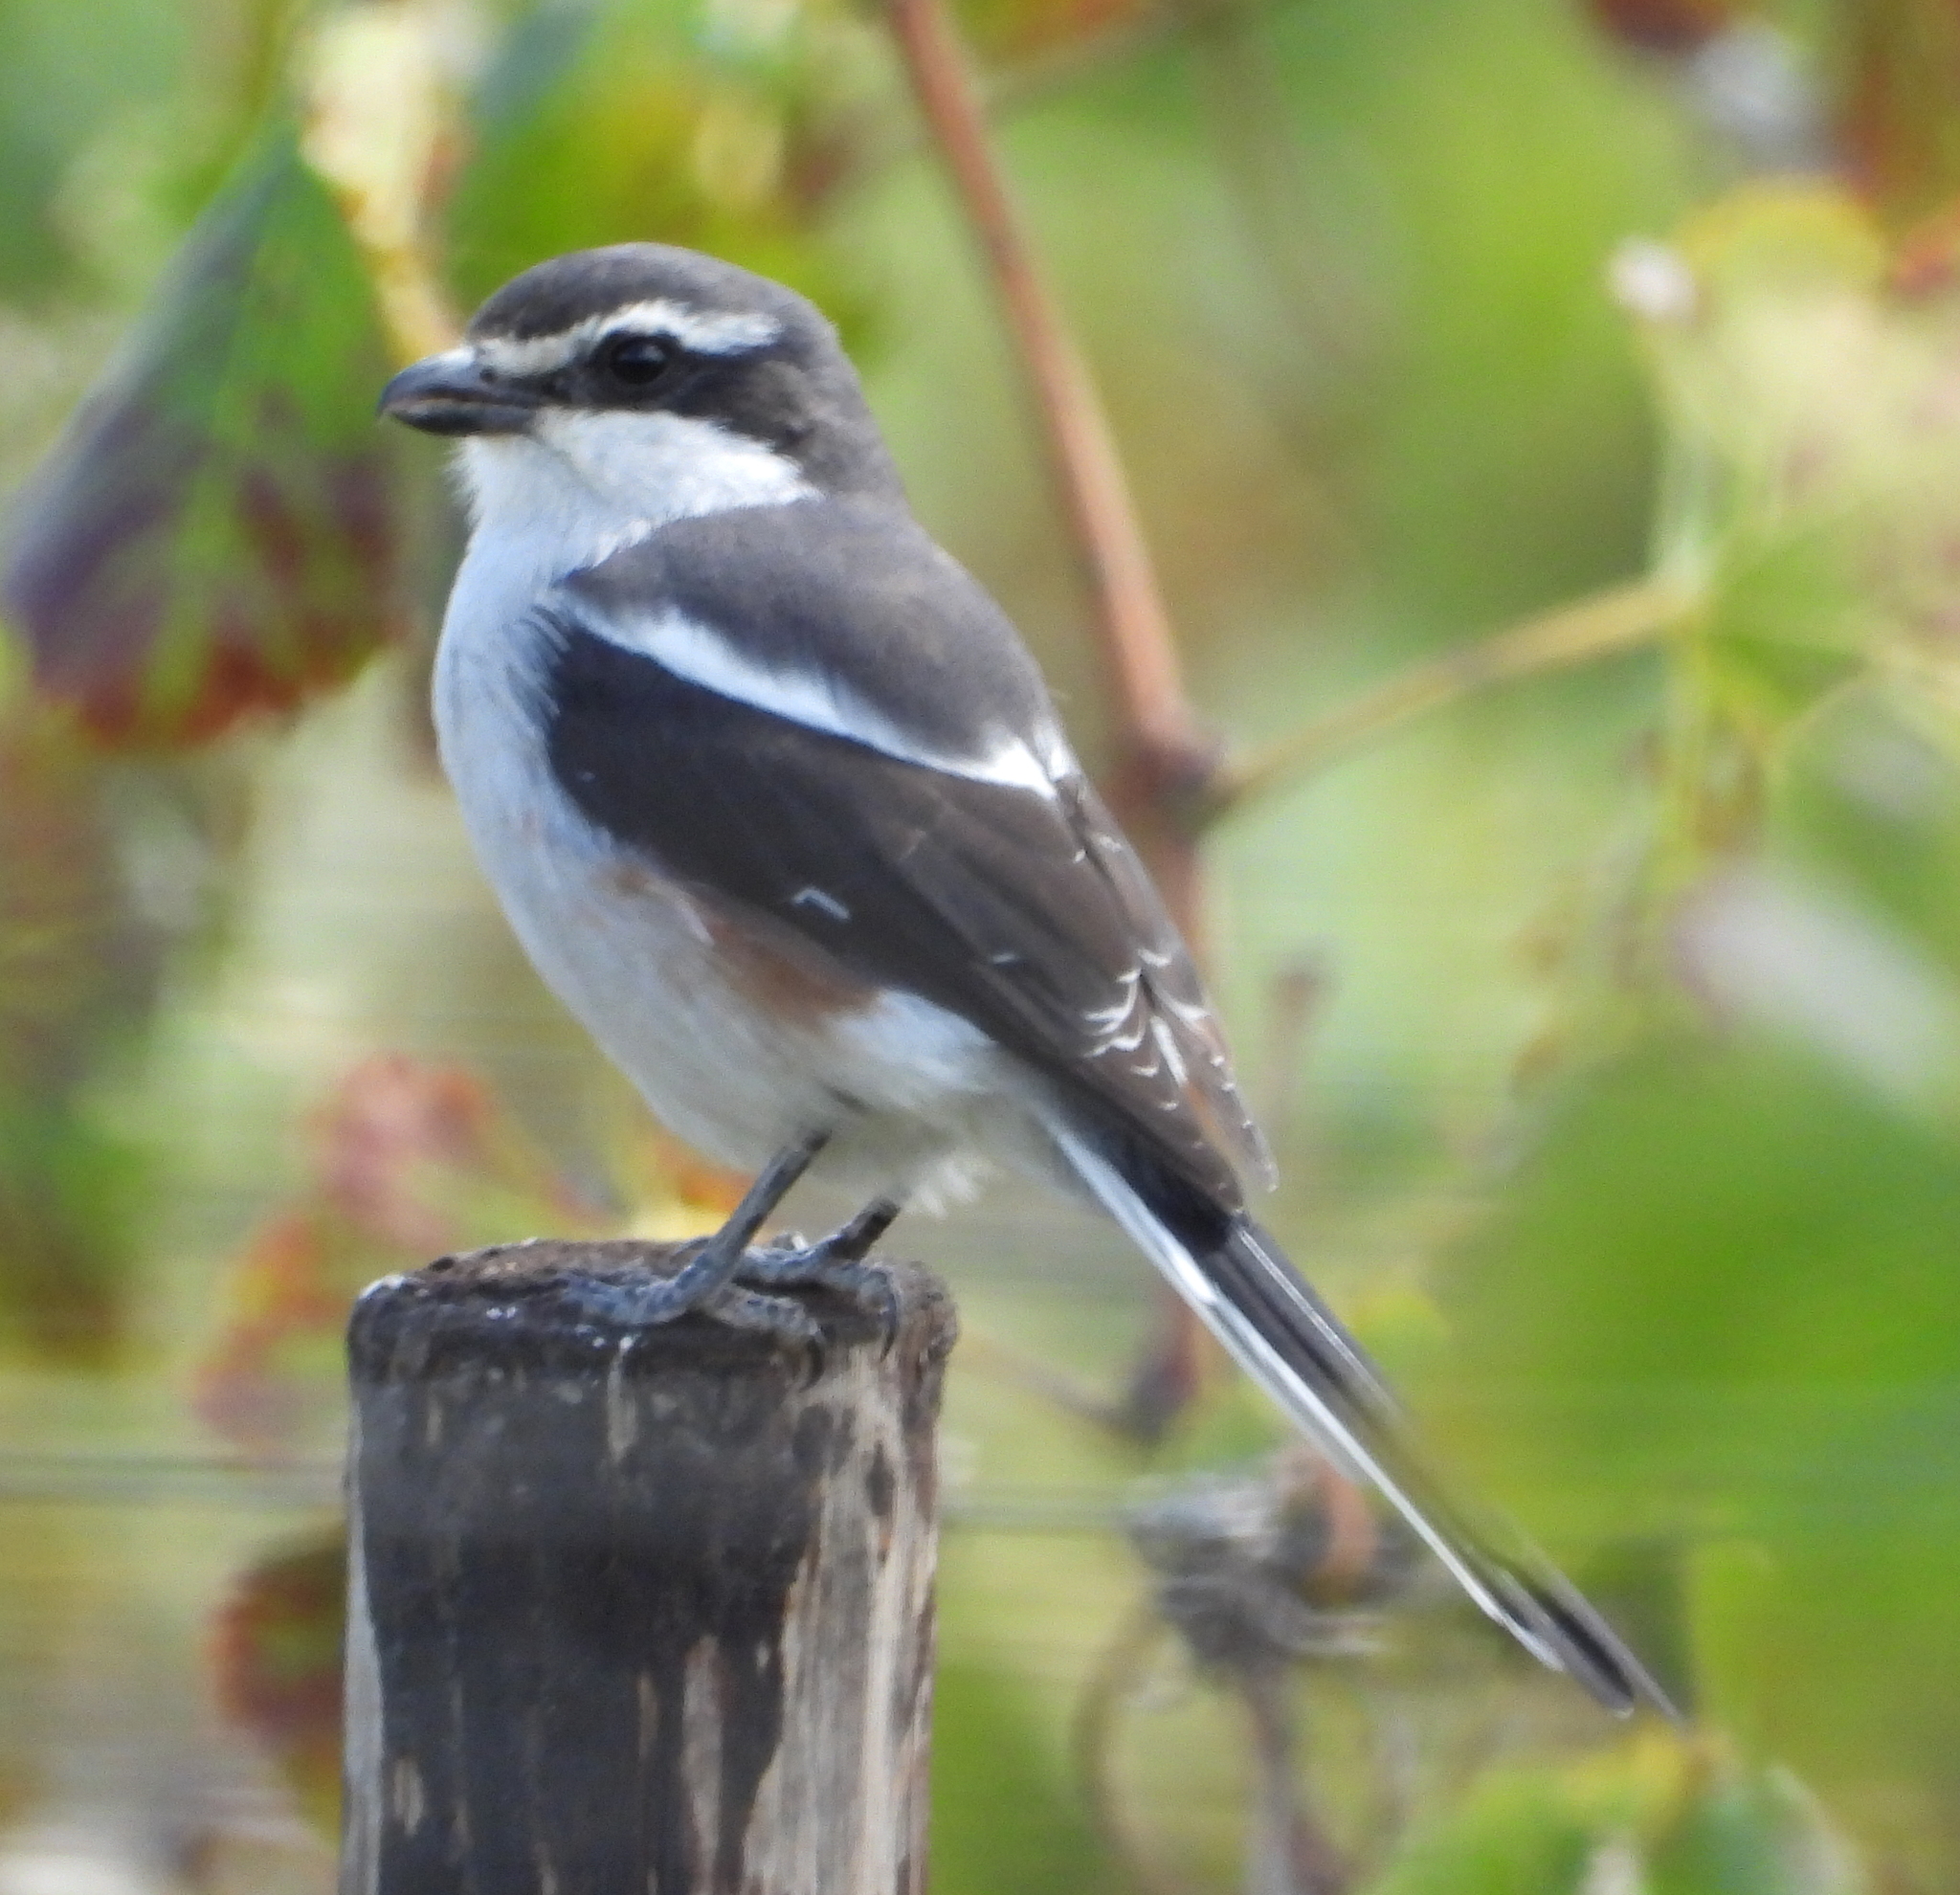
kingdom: Animalia
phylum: Chordata
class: Aves
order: Passeriformes
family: Laniidae
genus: Lanius
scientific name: Lanius collaris
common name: Southern fiscal
